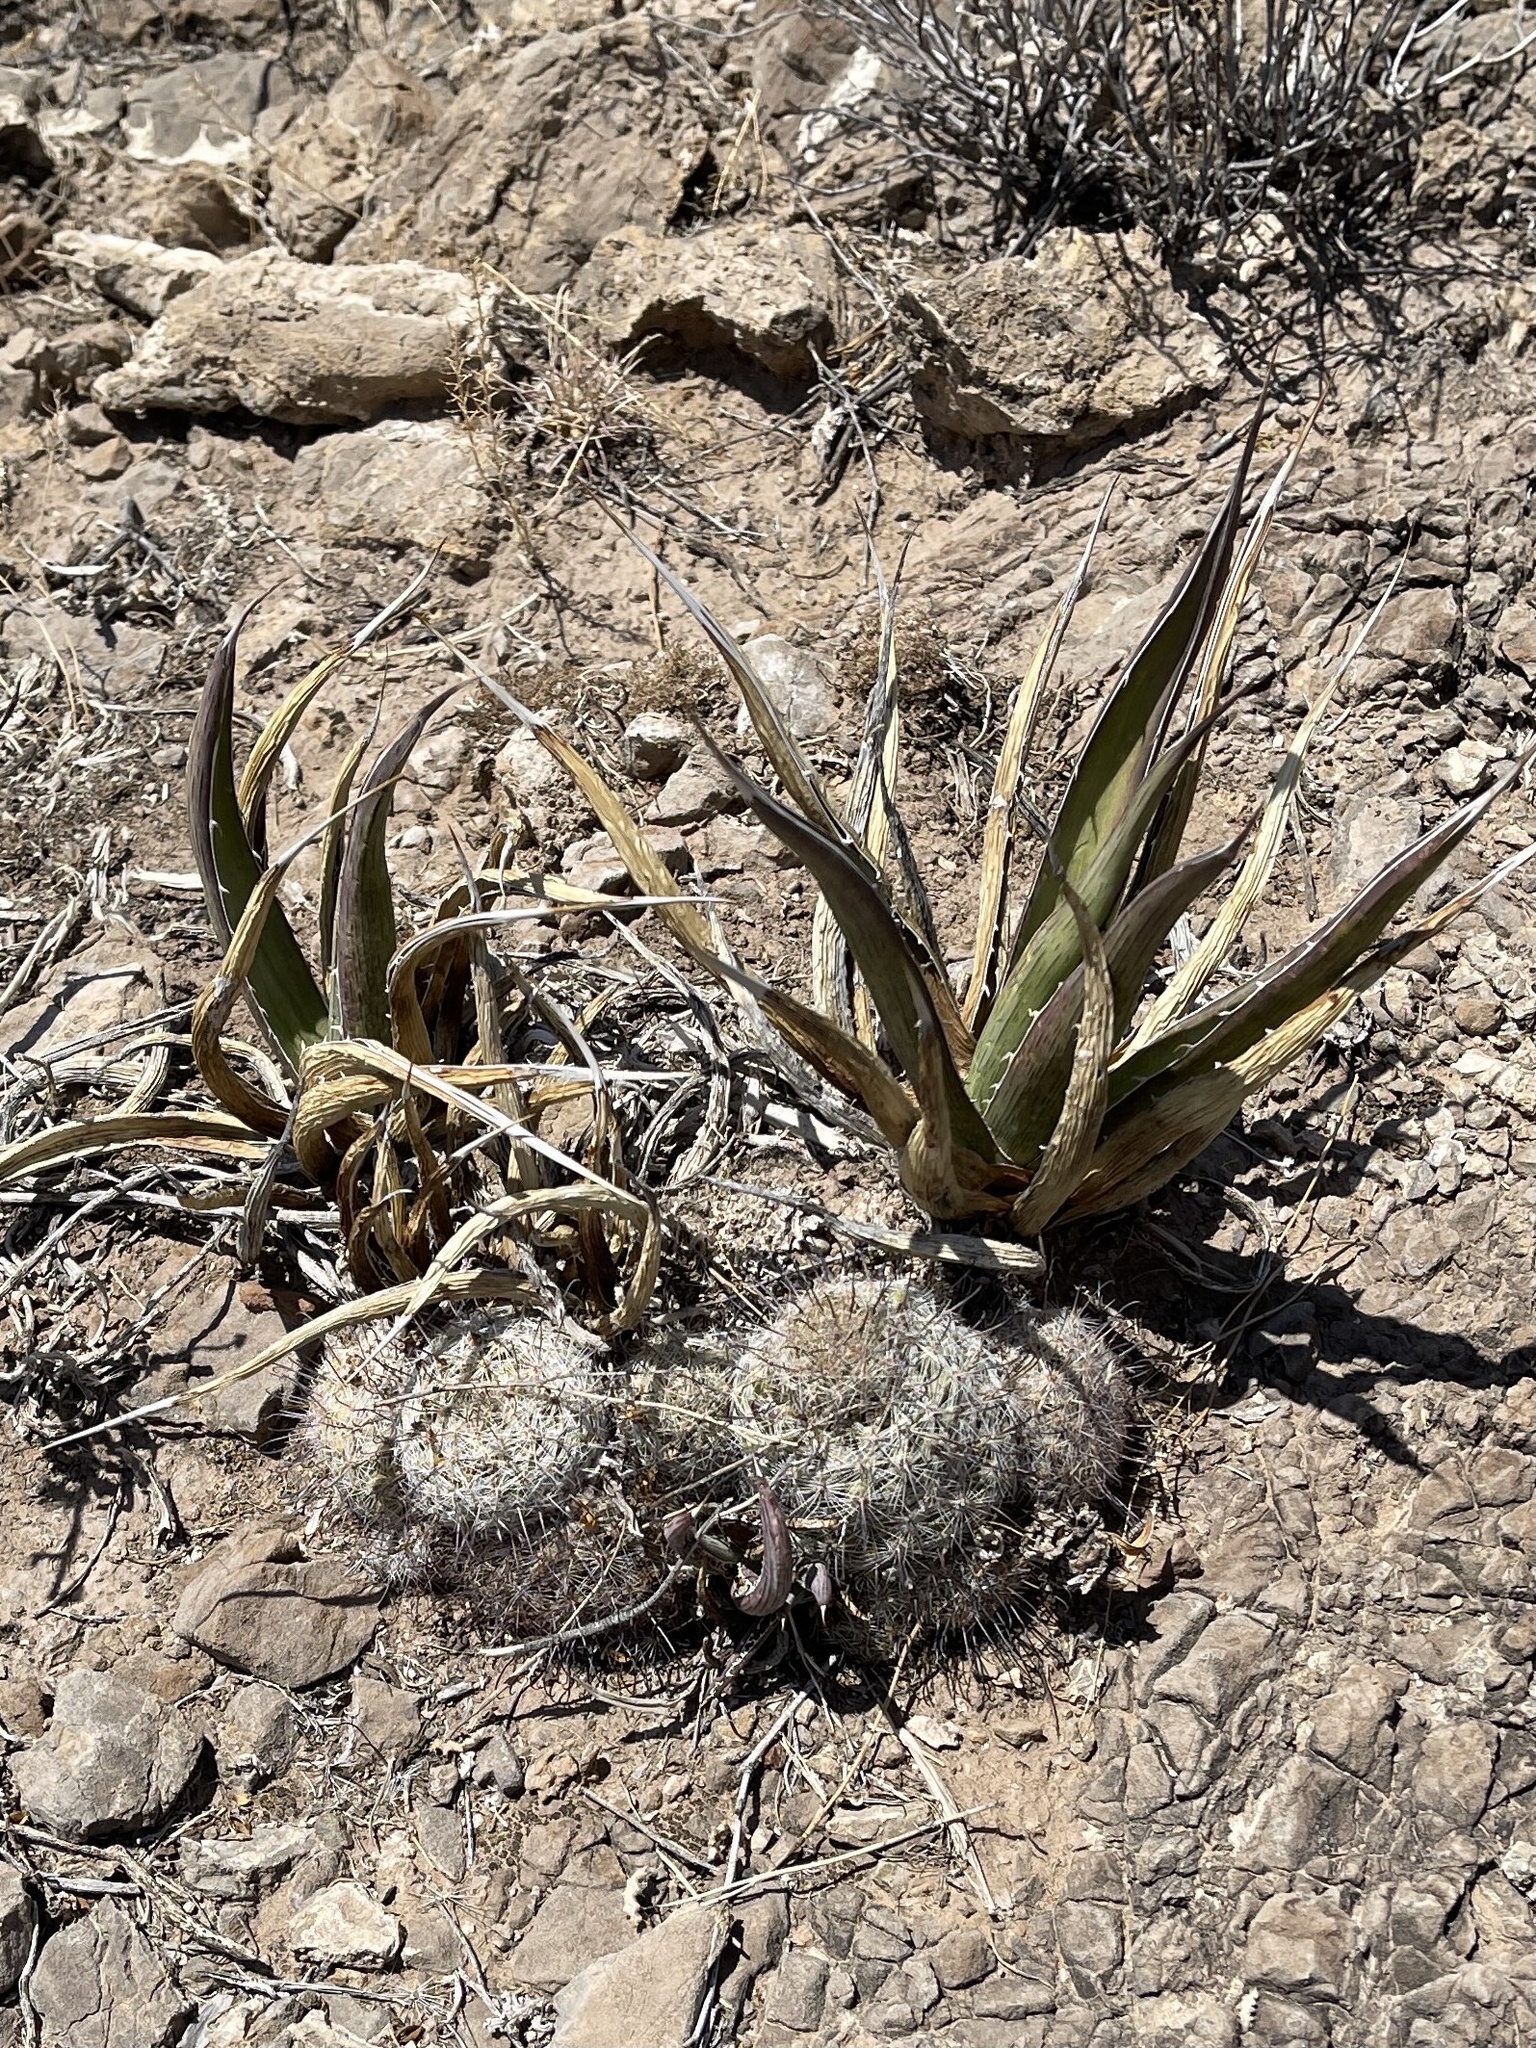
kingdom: Plantae
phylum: Tracheophyta
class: Liliopsida
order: Asparagales
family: Asparagaceae
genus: Agave
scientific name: Agave lechuguilla
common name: Lecheguilla agave
